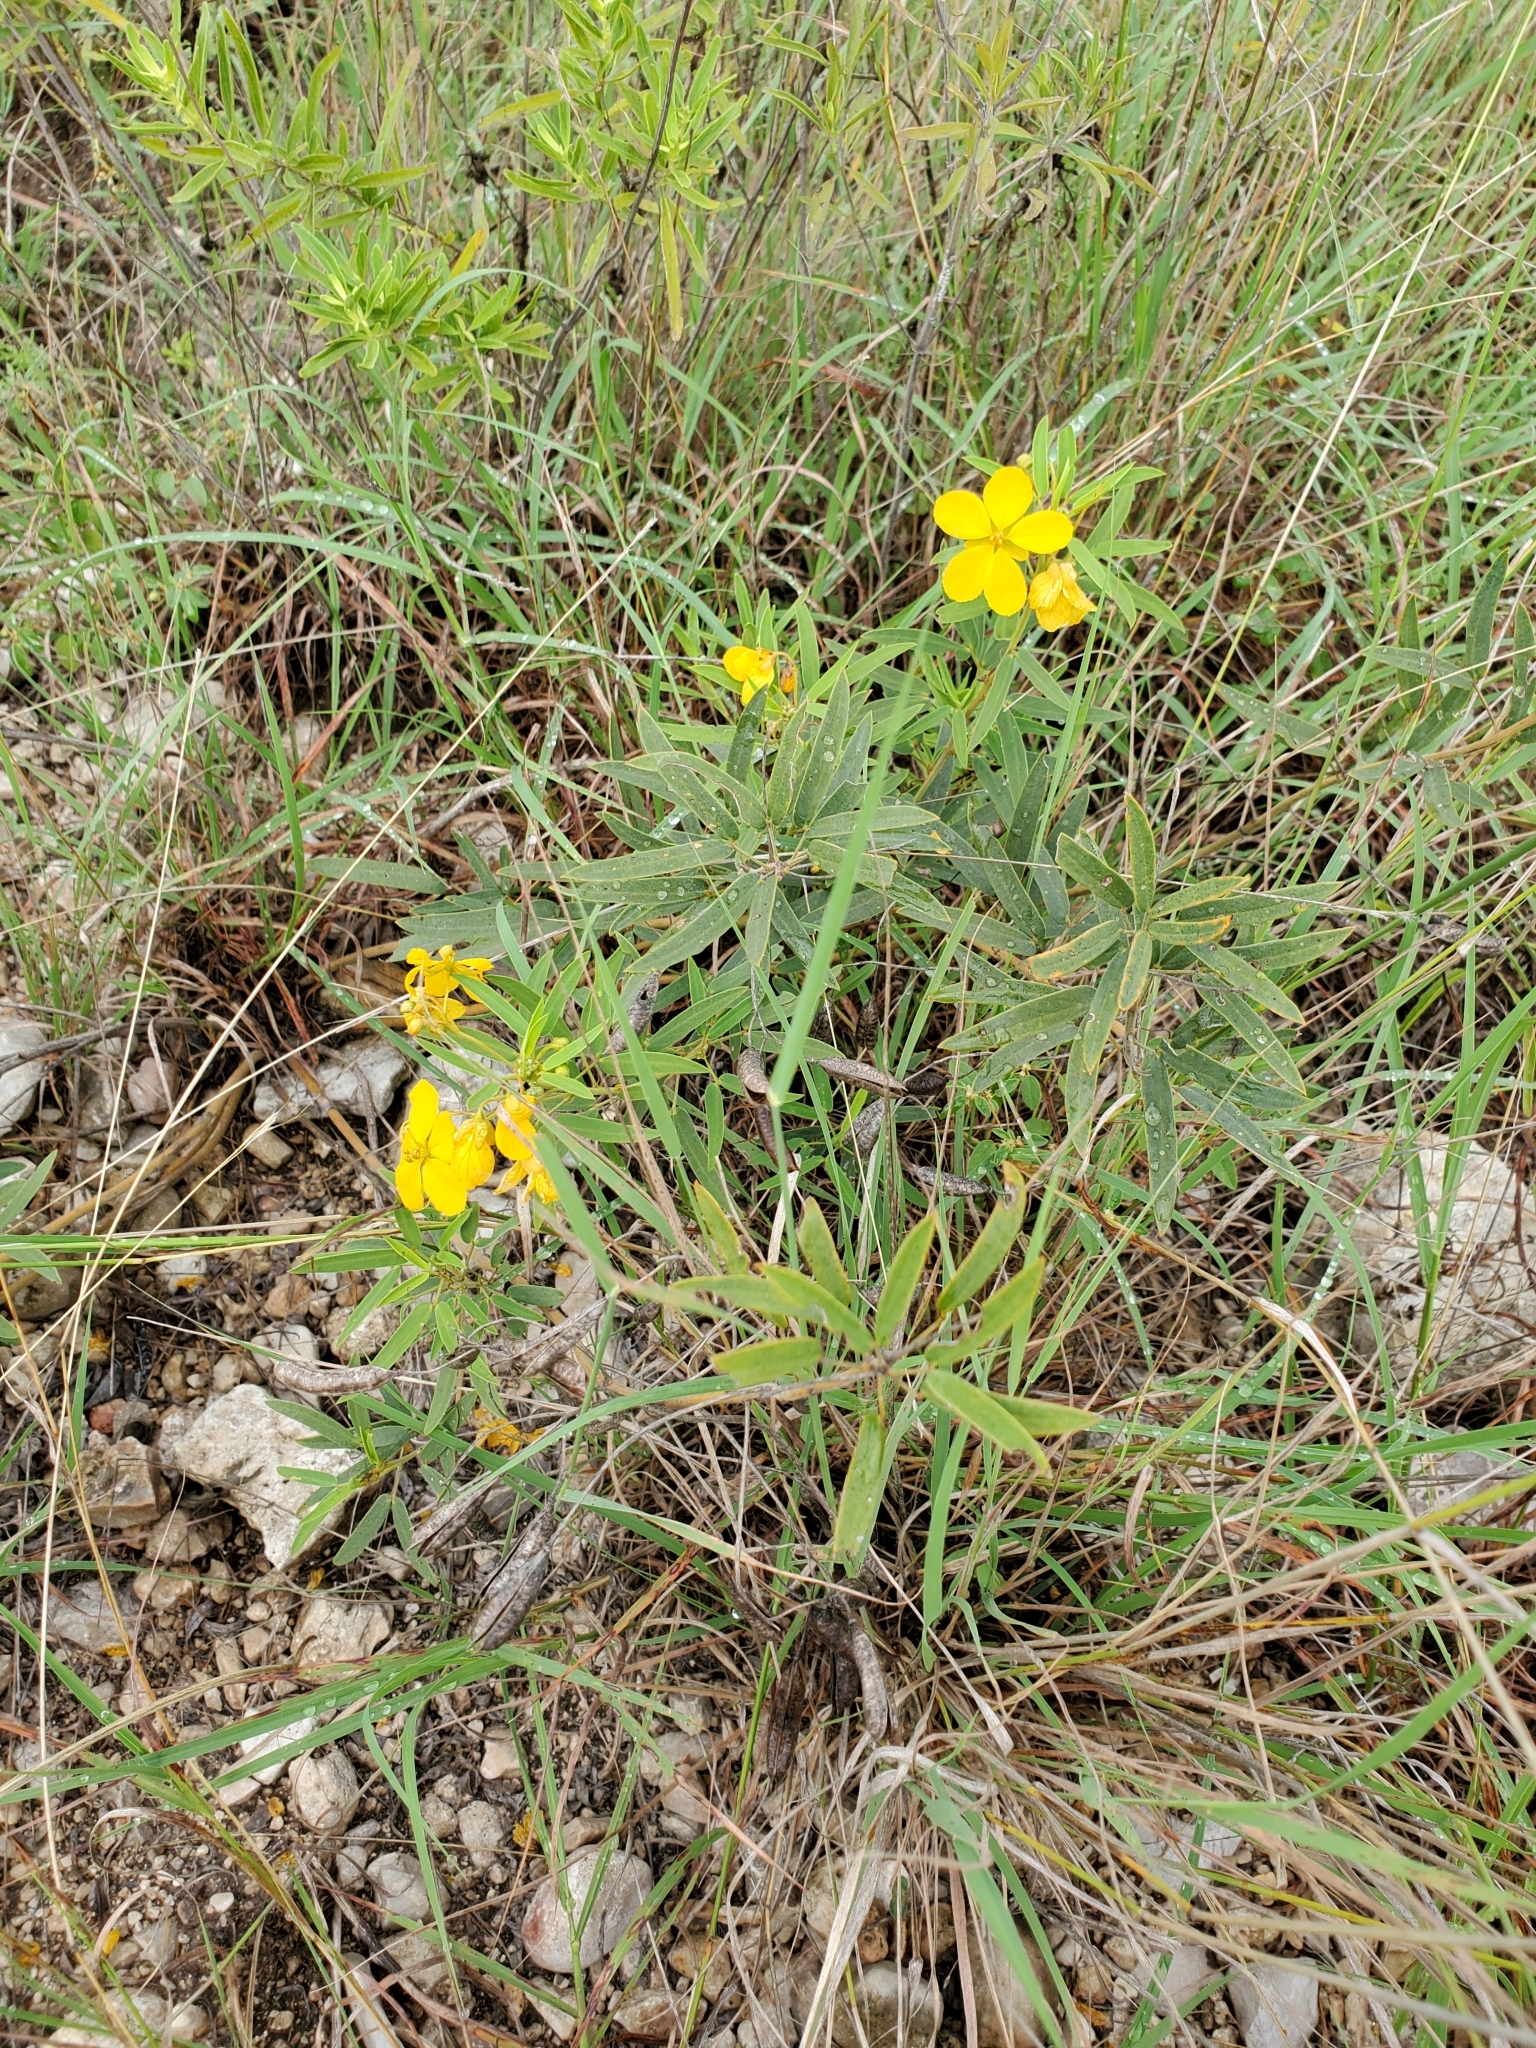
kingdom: Plantae
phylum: Tracheophyta
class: Magnoliopsida
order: Fabales
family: Fabaceae
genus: Senna
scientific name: Senna roemeriana
